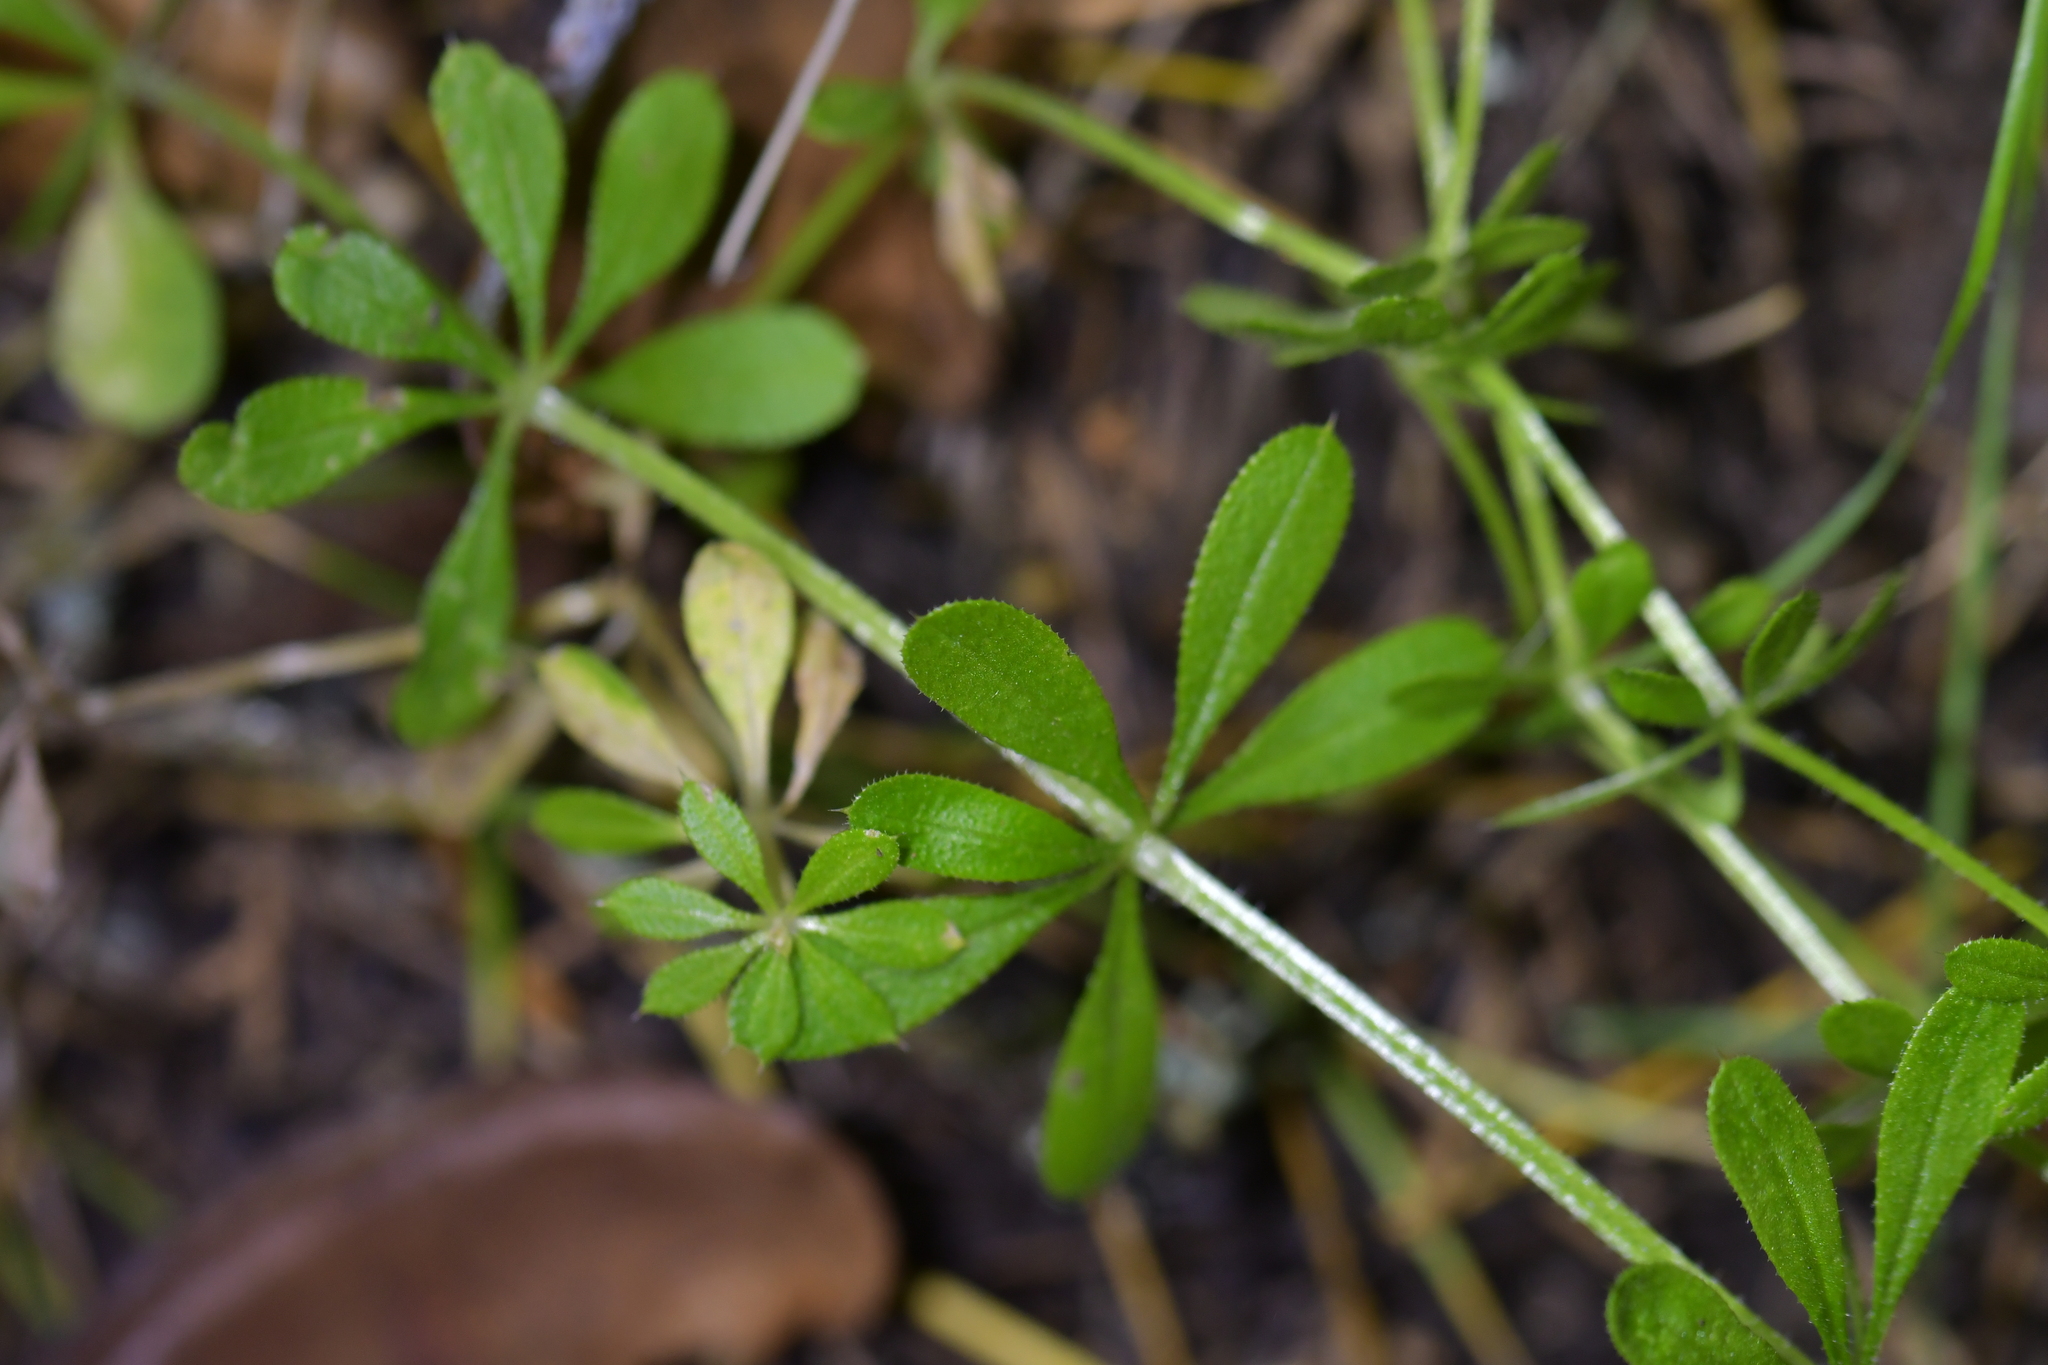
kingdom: Plantae
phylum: Tracheophyta
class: Magnoliopsida
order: Gentianales
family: Rubiaceae
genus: Galium
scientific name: Galium aparine
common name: Cleavers
